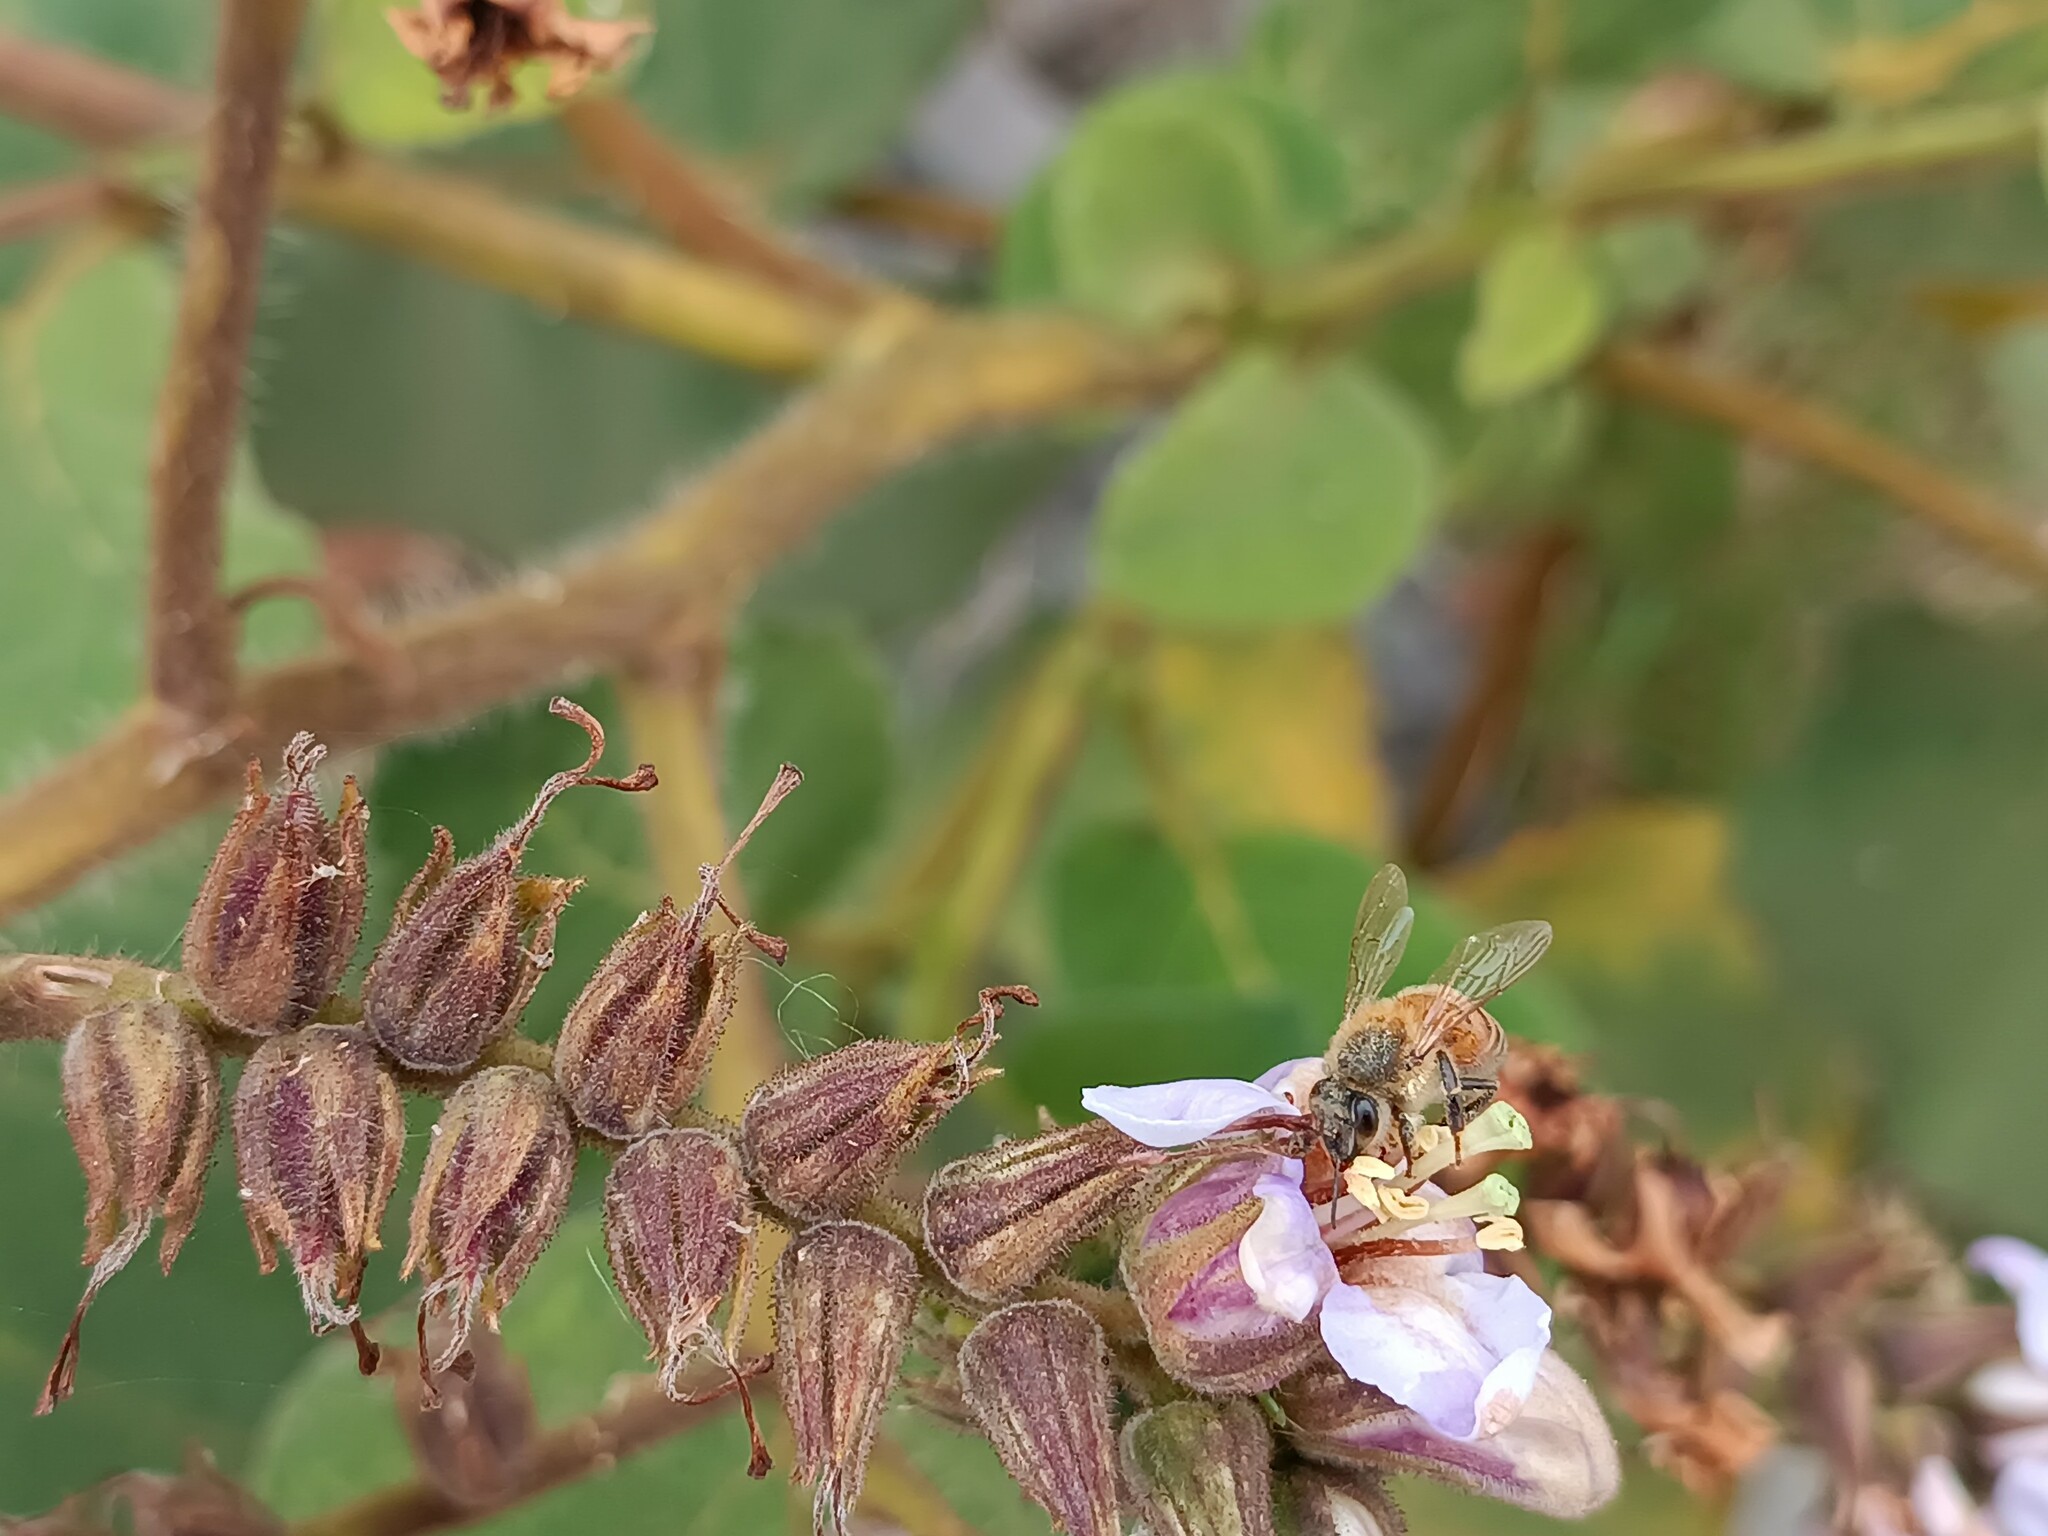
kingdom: Animalia
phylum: Arthropoda
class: Insecta
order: Hymenoptera
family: Apidae
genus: Apis
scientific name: Apis mellifera
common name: Honey bee
